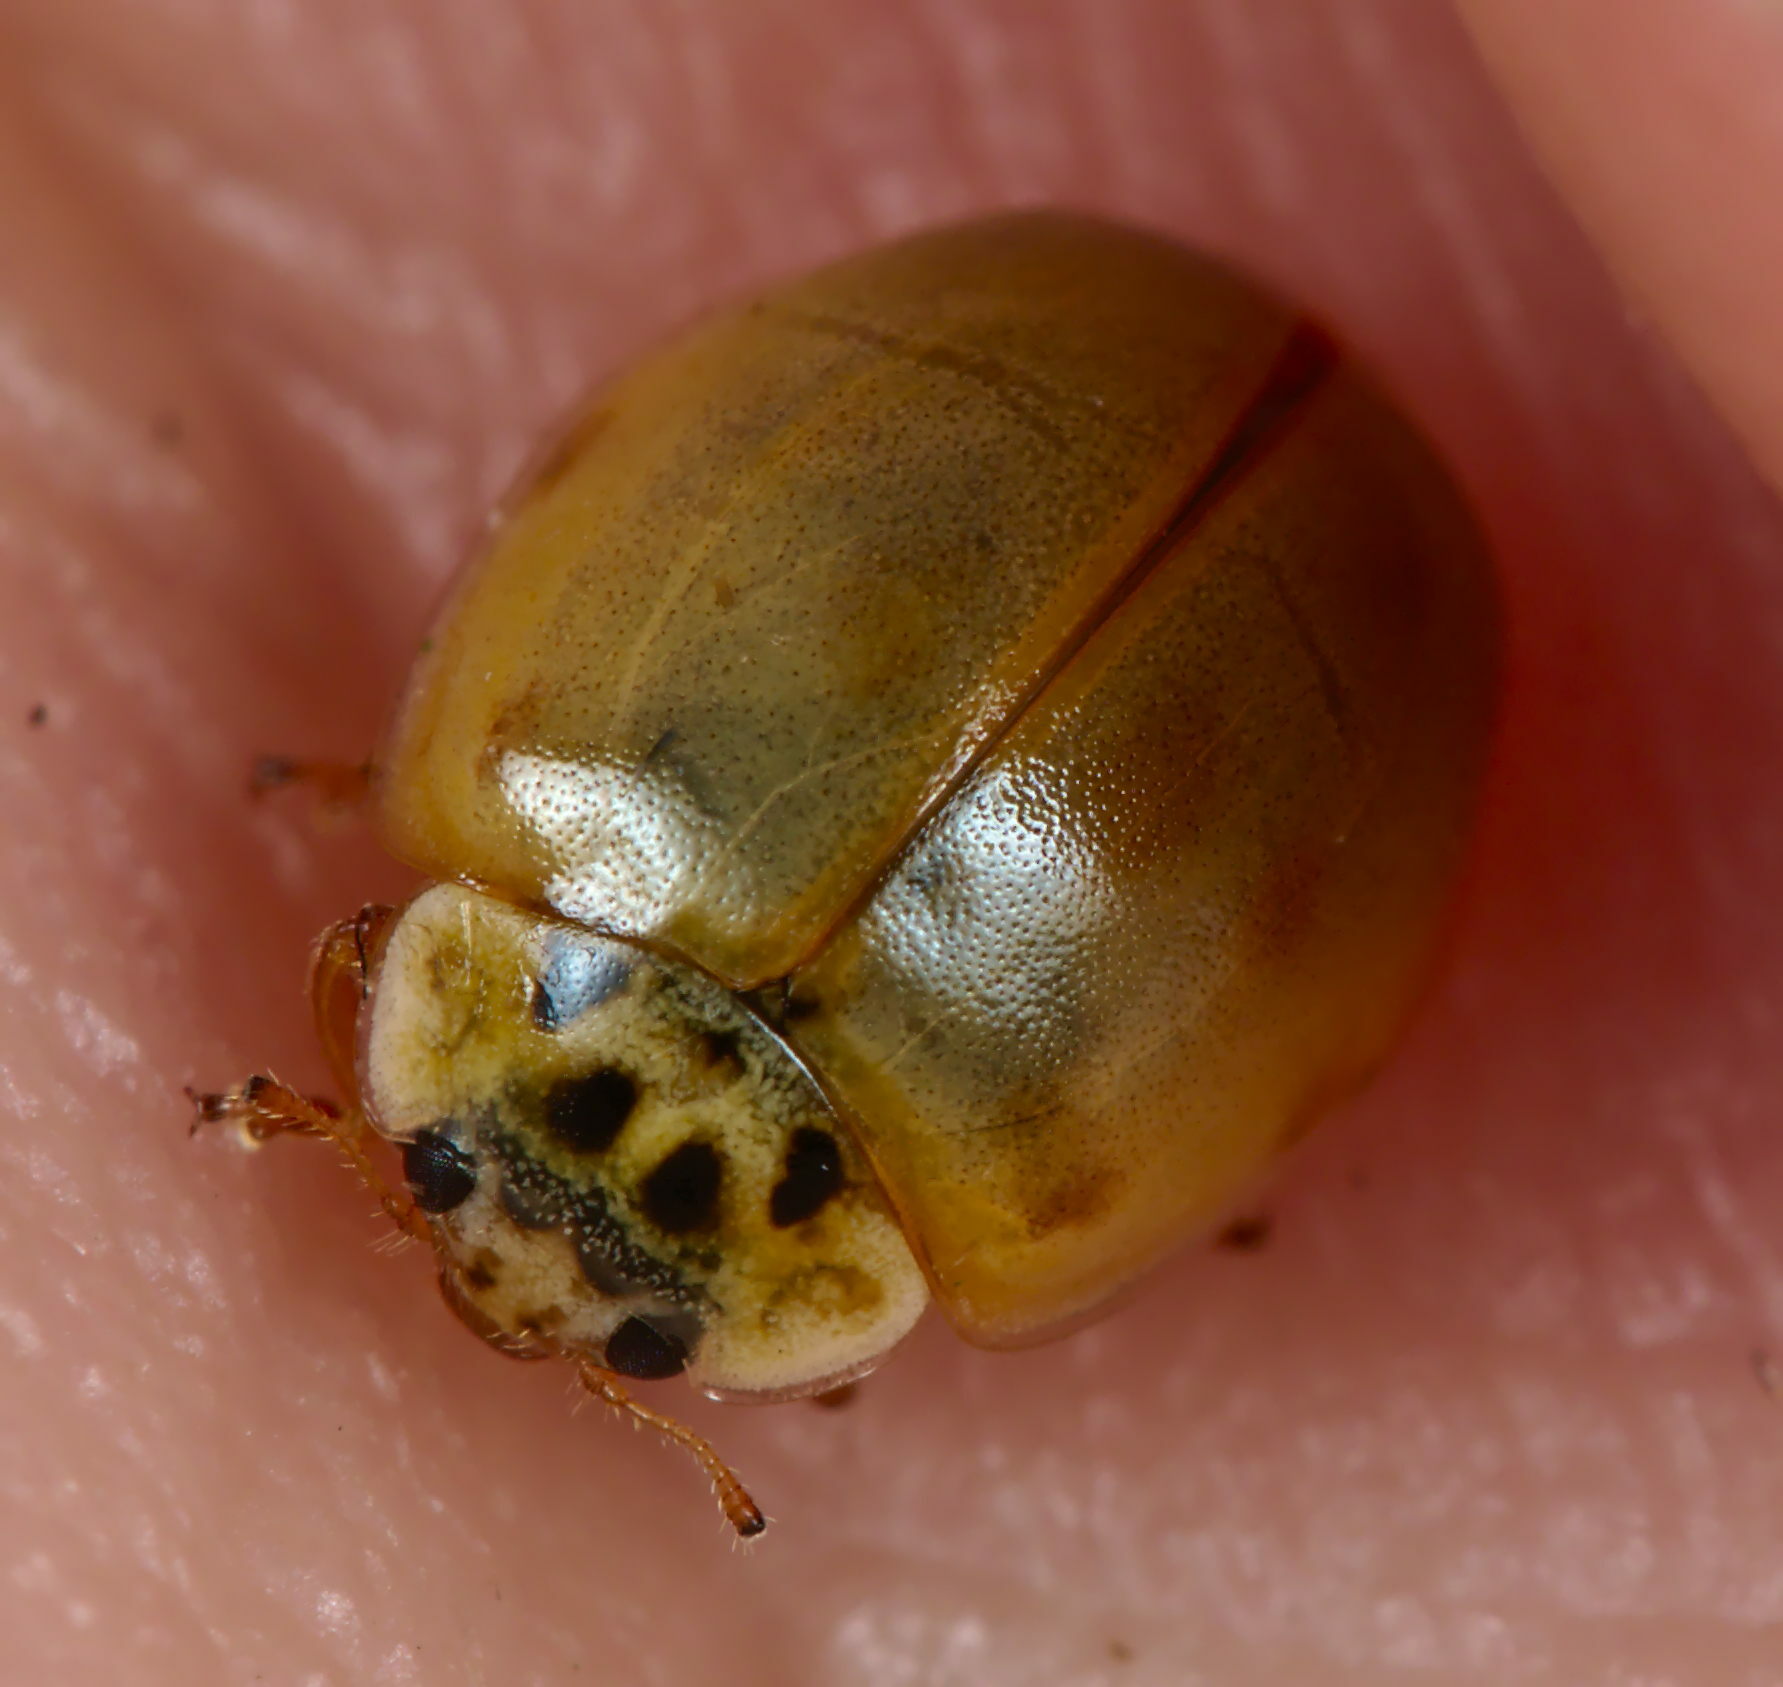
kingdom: Animalia
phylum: Arthropoda
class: Insecta
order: Coleoptera
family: Coccinellidae
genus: Adalia
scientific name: Adalia decempunctata
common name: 10-spot ladybird
